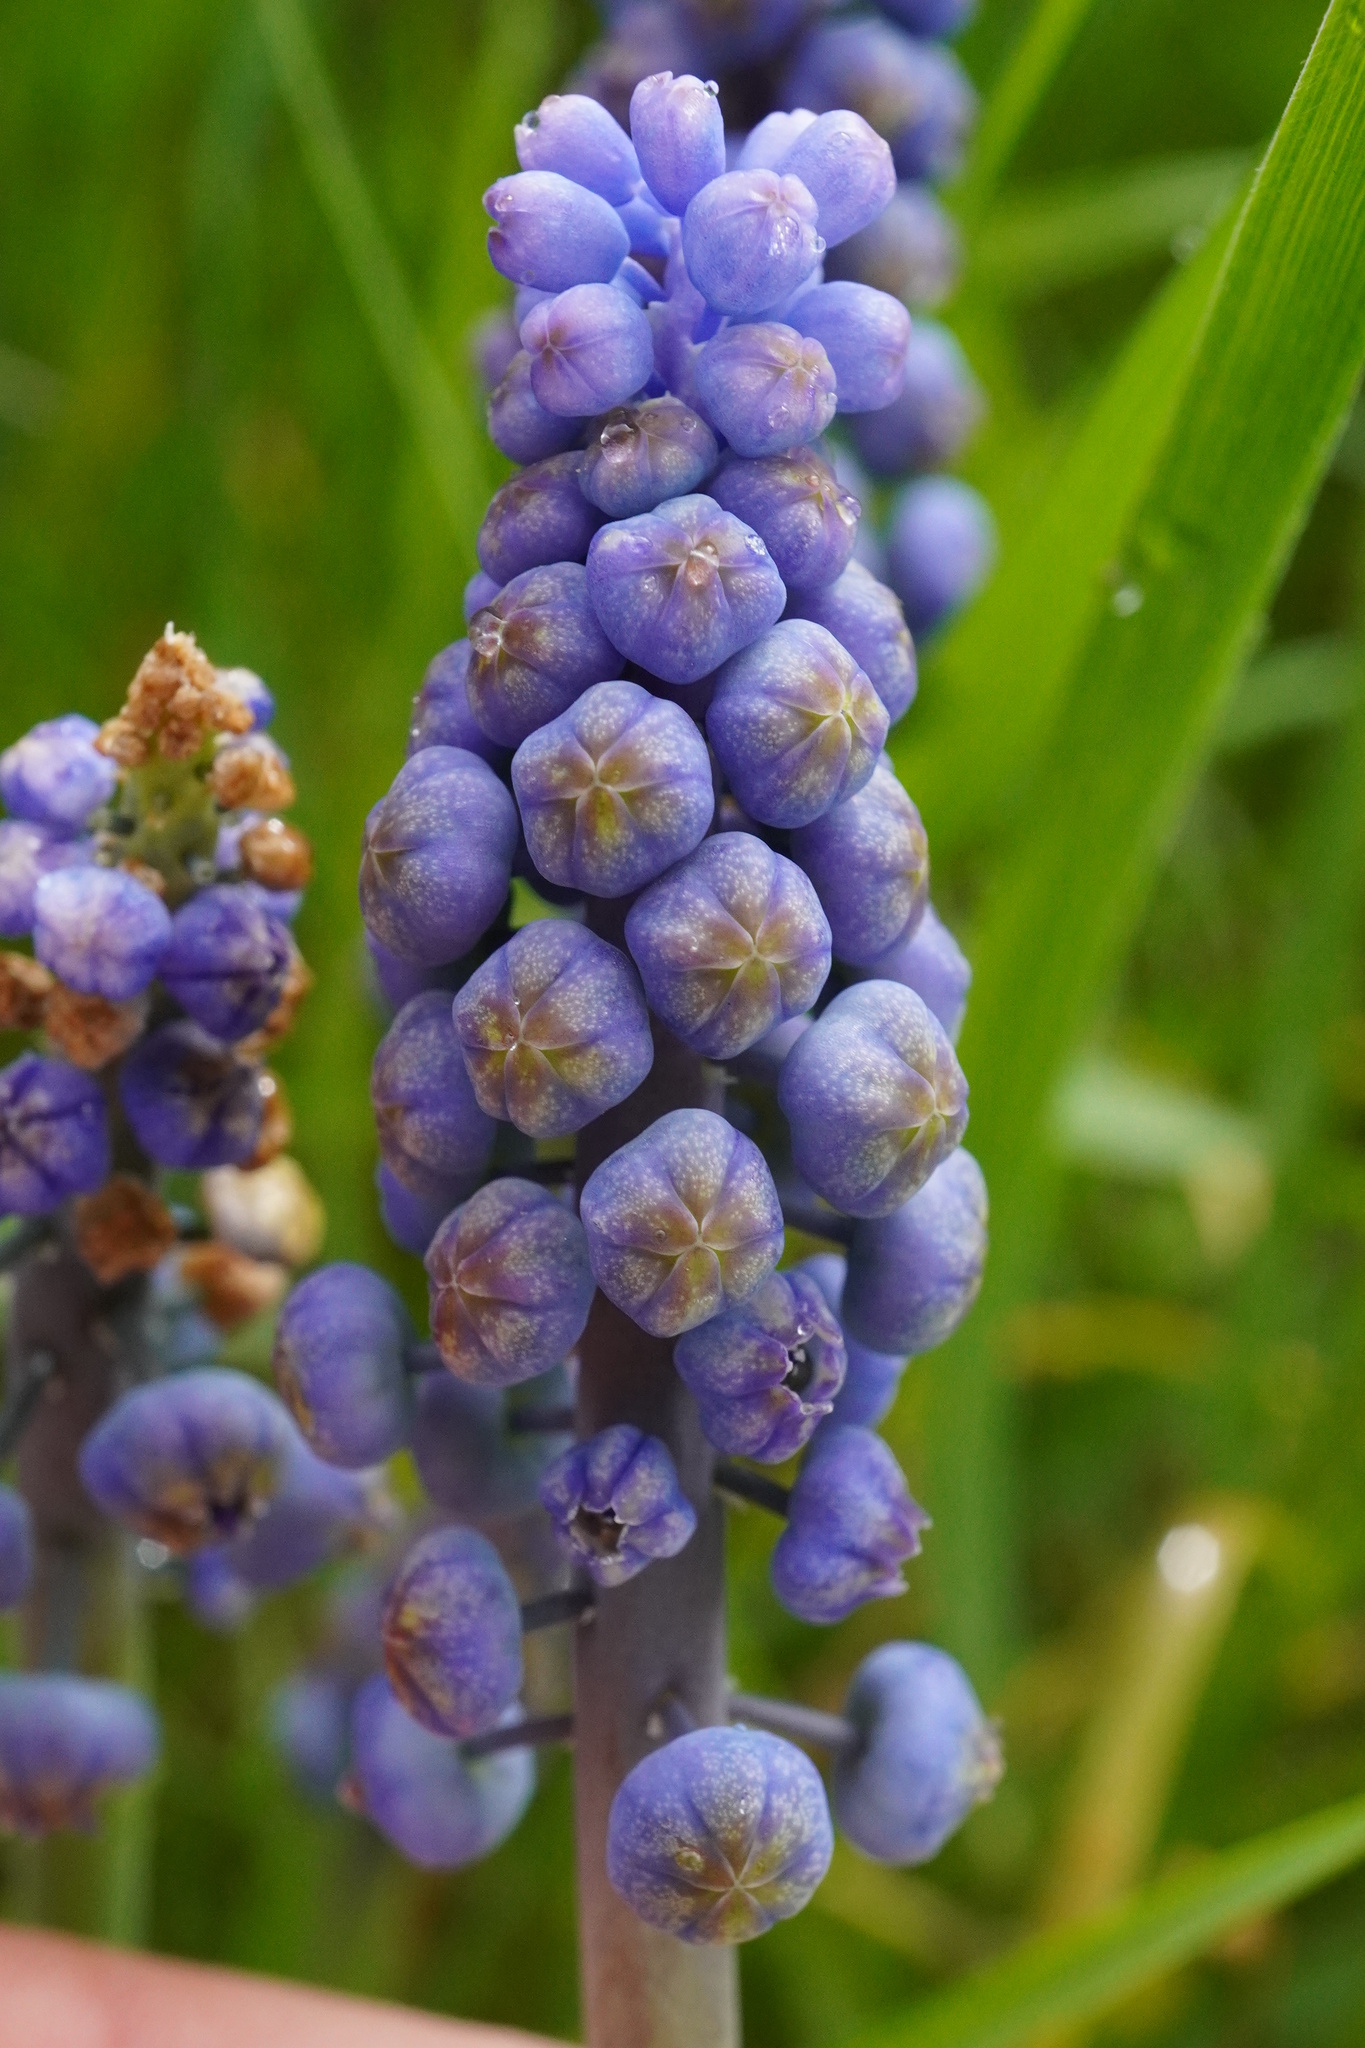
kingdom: Fungi
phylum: Basidiomycota
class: Ustilaginomycetes
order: Urocystidales
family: Floromycetaceae
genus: Antherospora
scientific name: Antherospora hortensis
